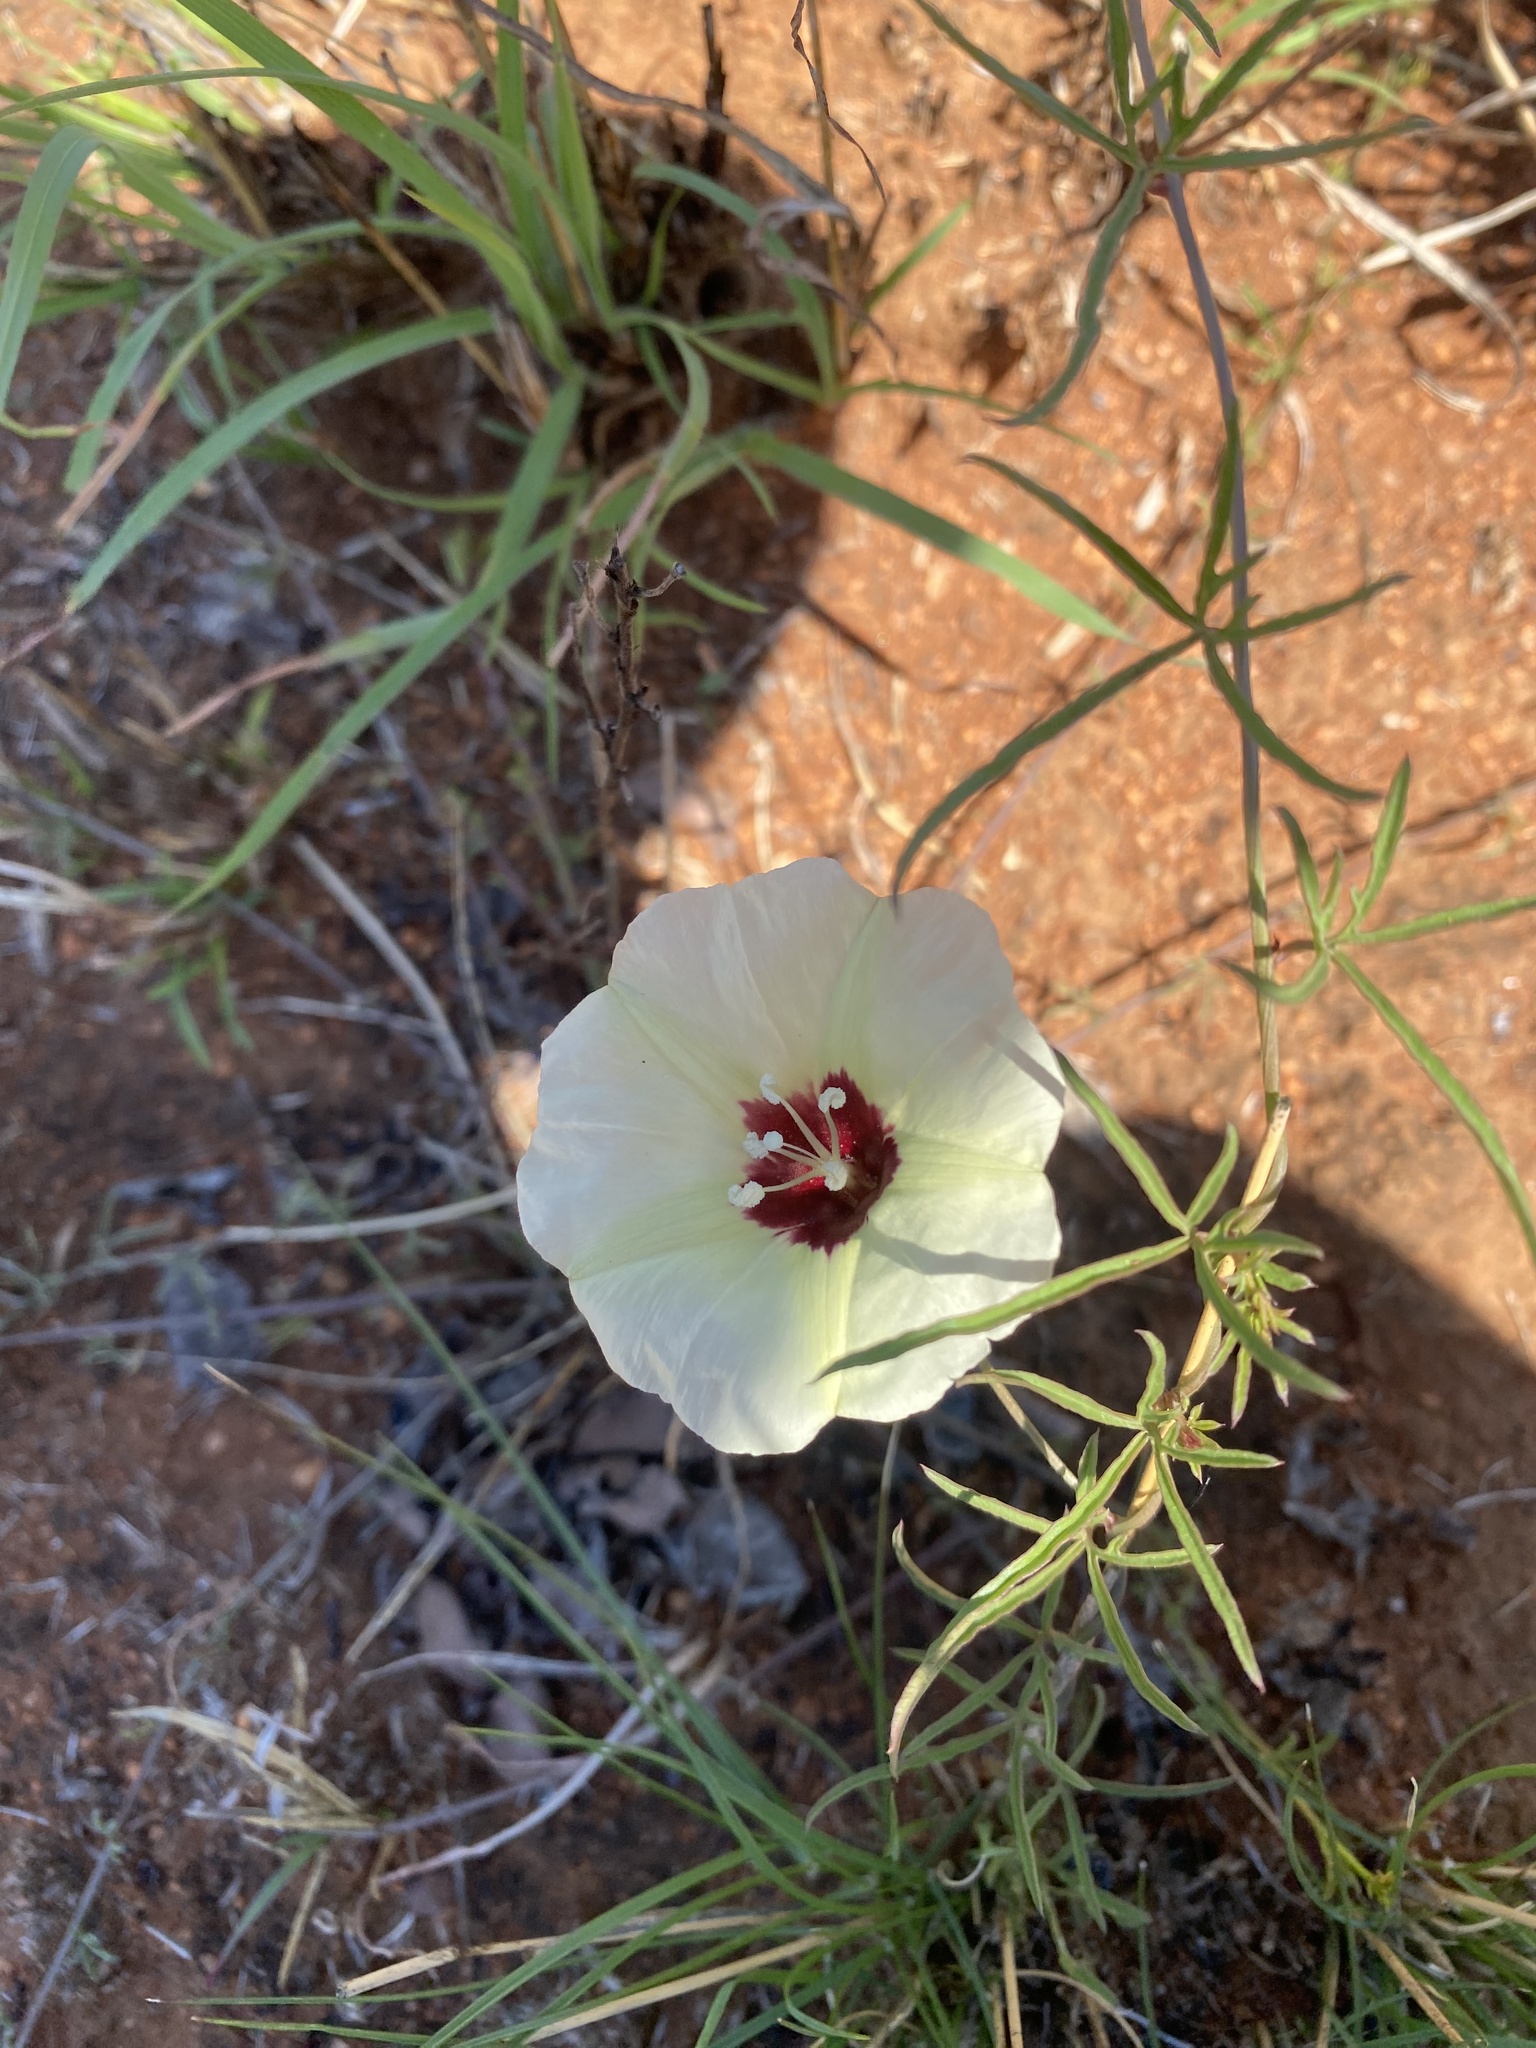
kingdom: Plantae
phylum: Tracheophyta
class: Magnoliopsida
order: Solanales
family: Convolvulaceae
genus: Merremia
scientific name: Merremia palmata
